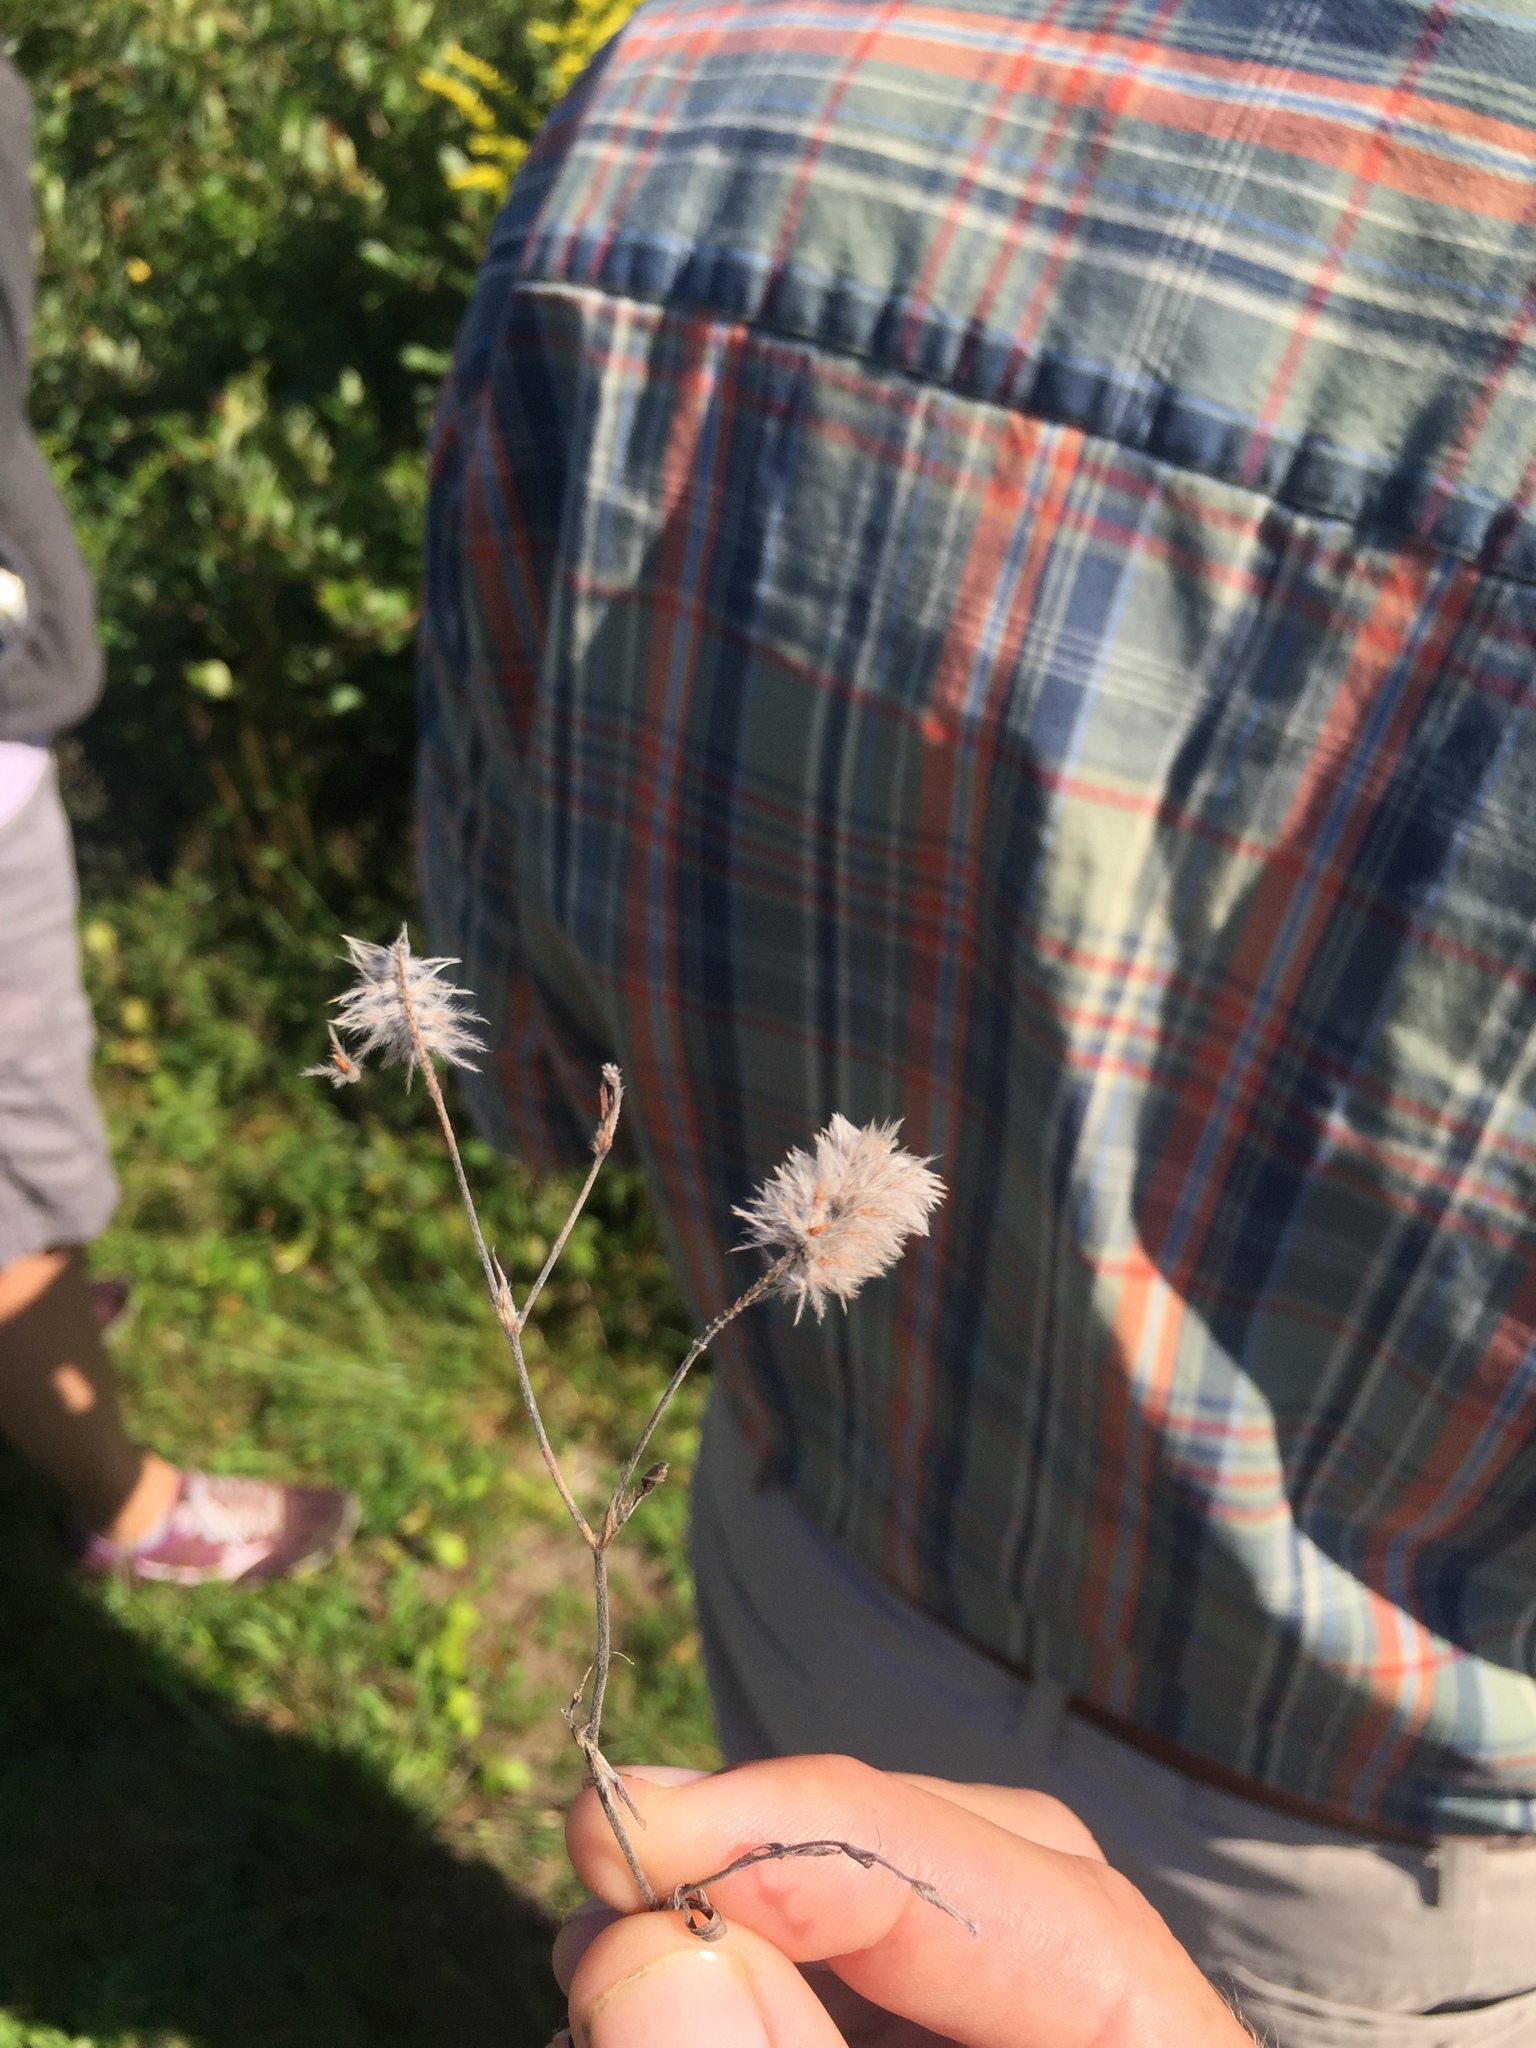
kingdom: Plantae
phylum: Tracheophyta
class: Magnoliopsida
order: Fabales
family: Fabaceae
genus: Trifolium
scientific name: Trifolium arvense
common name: Hare's-foot clover
